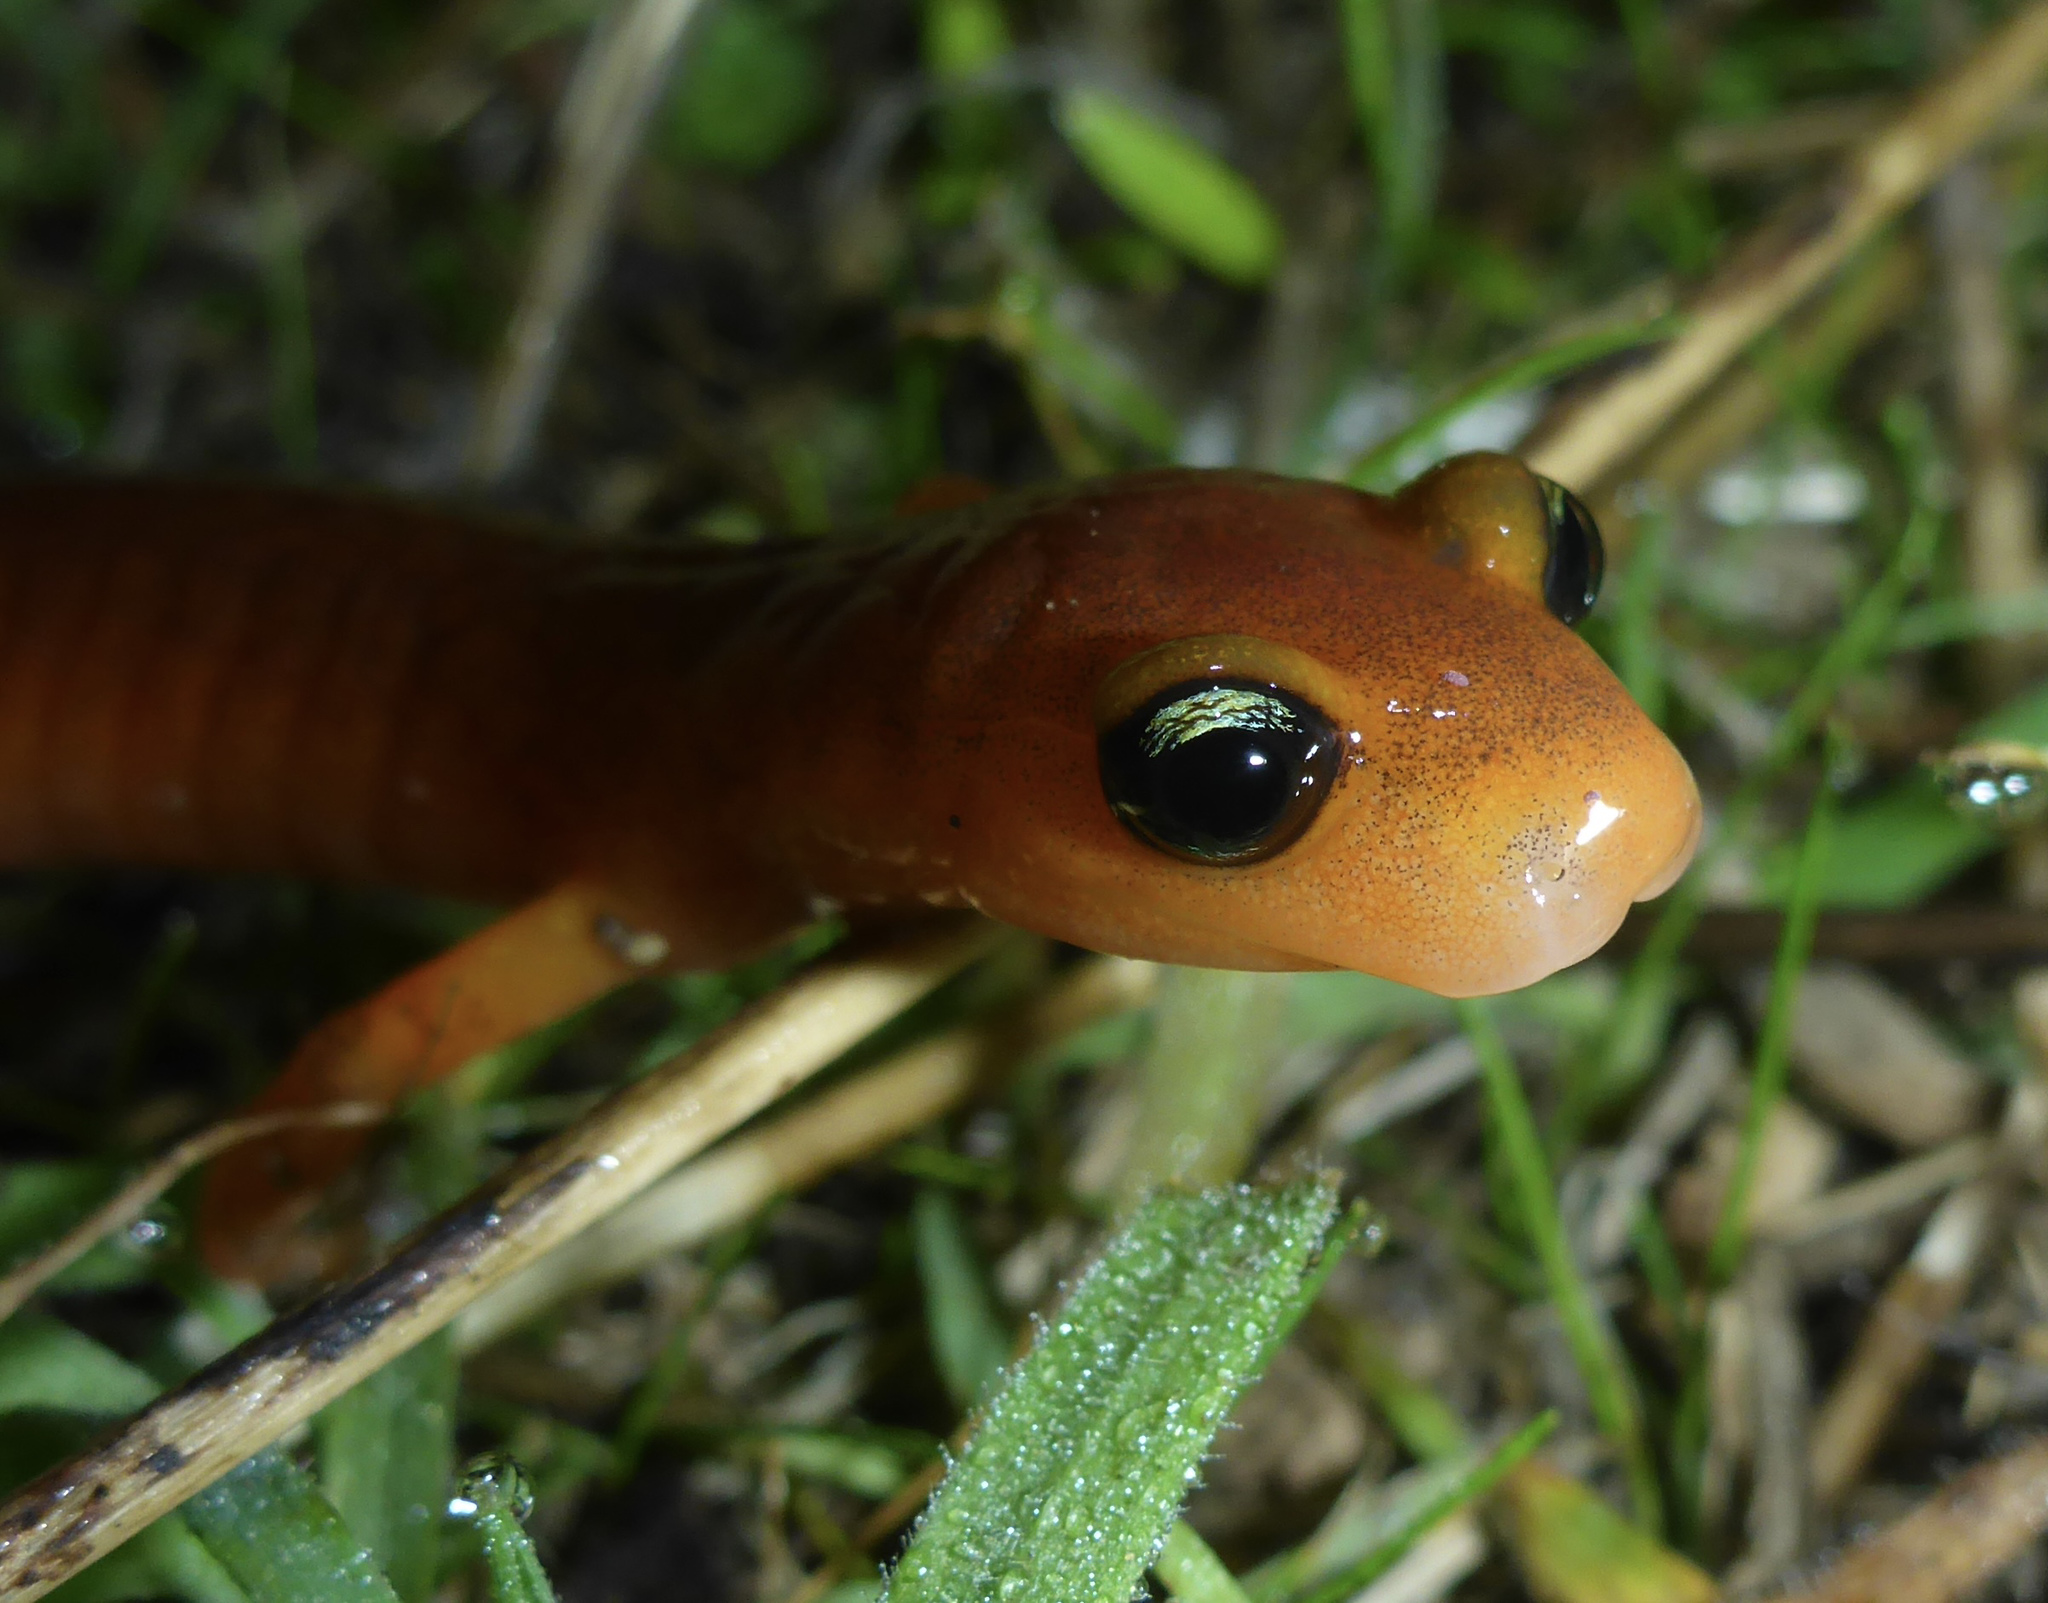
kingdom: Animalia
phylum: Chordata
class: Amphibia
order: Caudata
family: Plethodontidae
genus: Ensatina
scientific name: Ensatina eschscholtzii
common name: Ensatina
